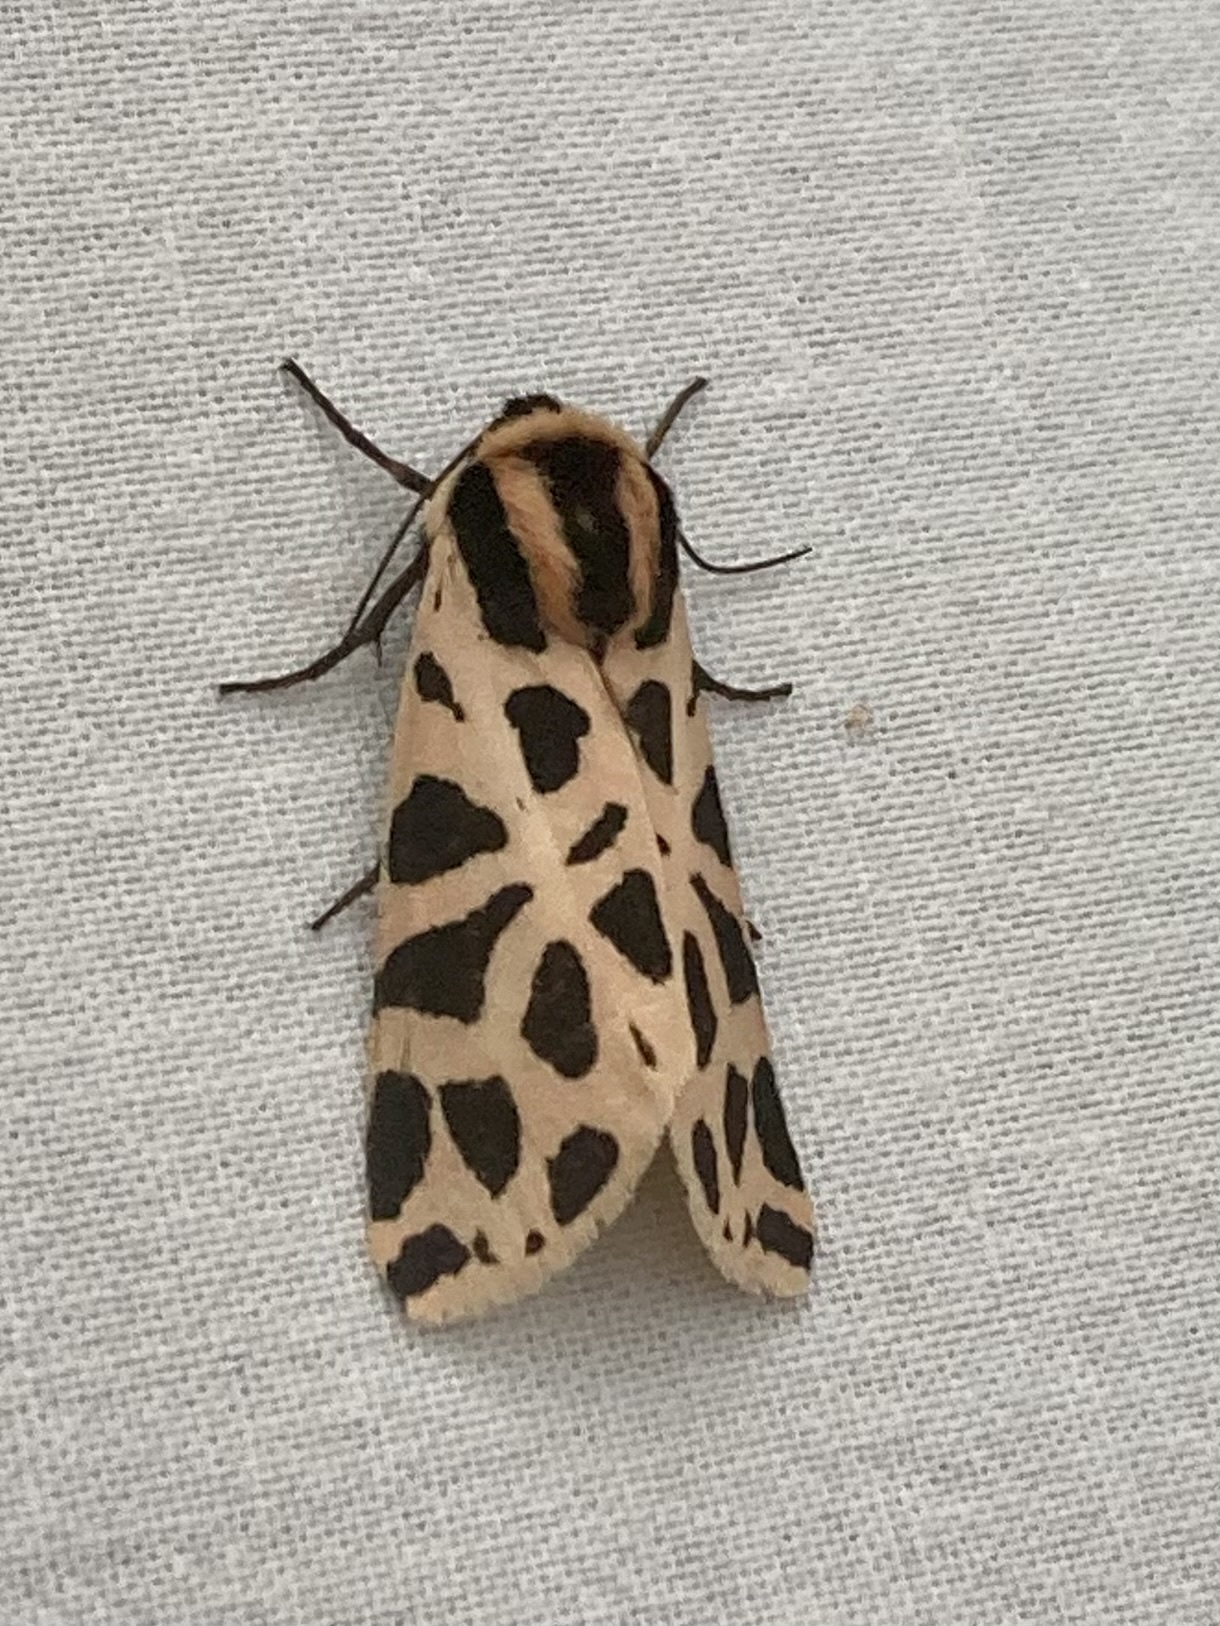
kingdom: Animalia
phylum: Arthropoda
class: Insecta
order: Lepidoptera
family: Erebidae
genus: Cymbalophora
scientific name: Cymbalophora pudica
